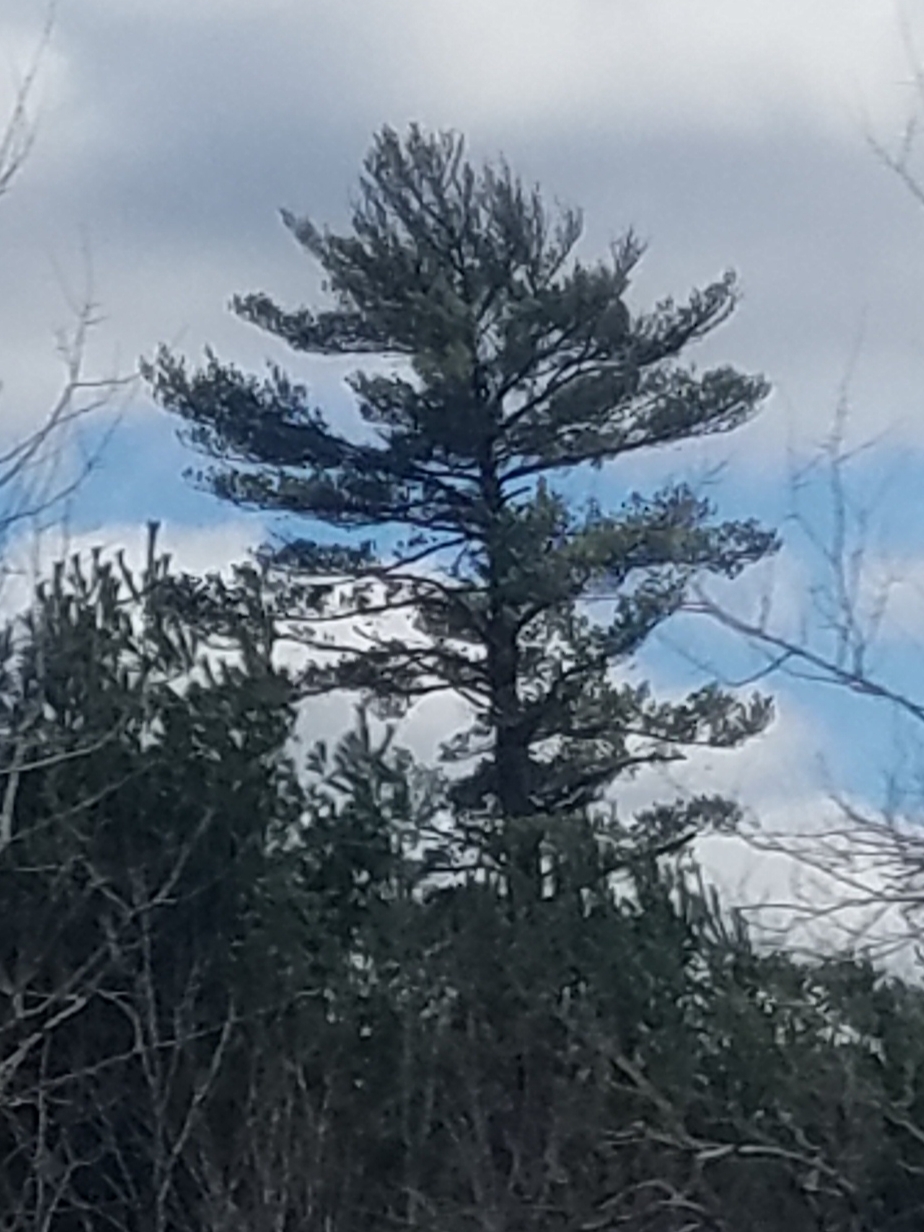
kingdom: Plantae
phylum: Tracheophyta
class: Pinopsida
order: Pinales
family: Pinaceae
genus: Pinus
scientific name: Pinus strobus
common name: Weymouth pine
